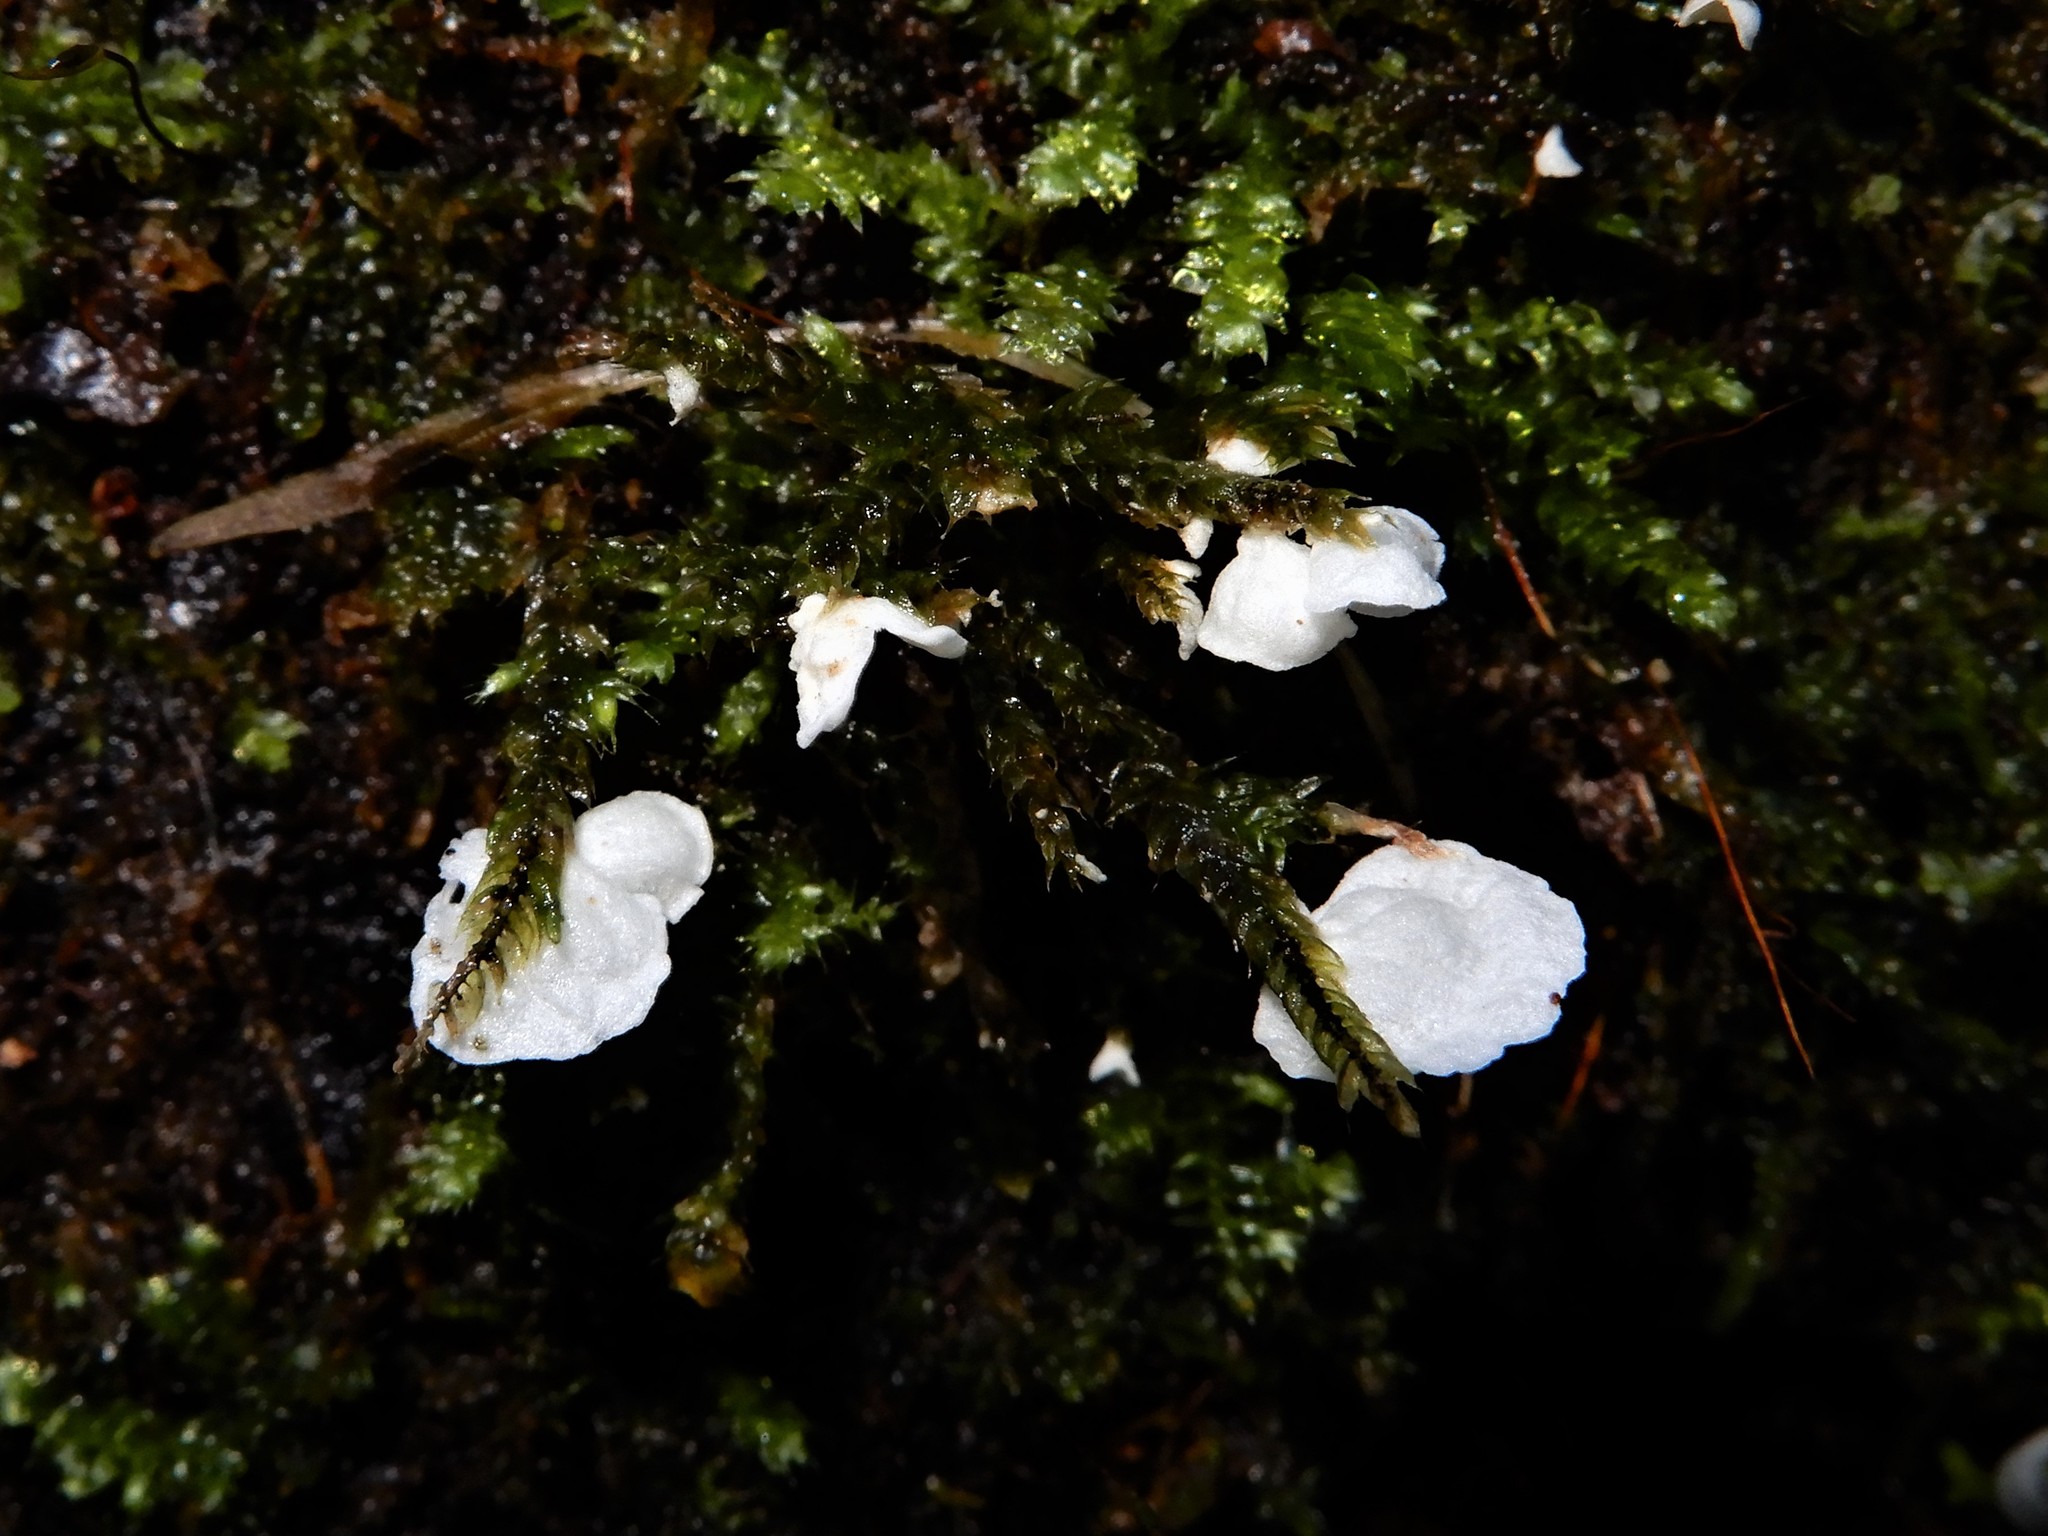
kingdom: Fungi
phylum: Basidiomycota
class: Agaricomycetes
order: Agaricales
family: Tricholomataceae
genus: Rimbachia
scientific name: Rimbachia bryophila
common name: Veined mossear
